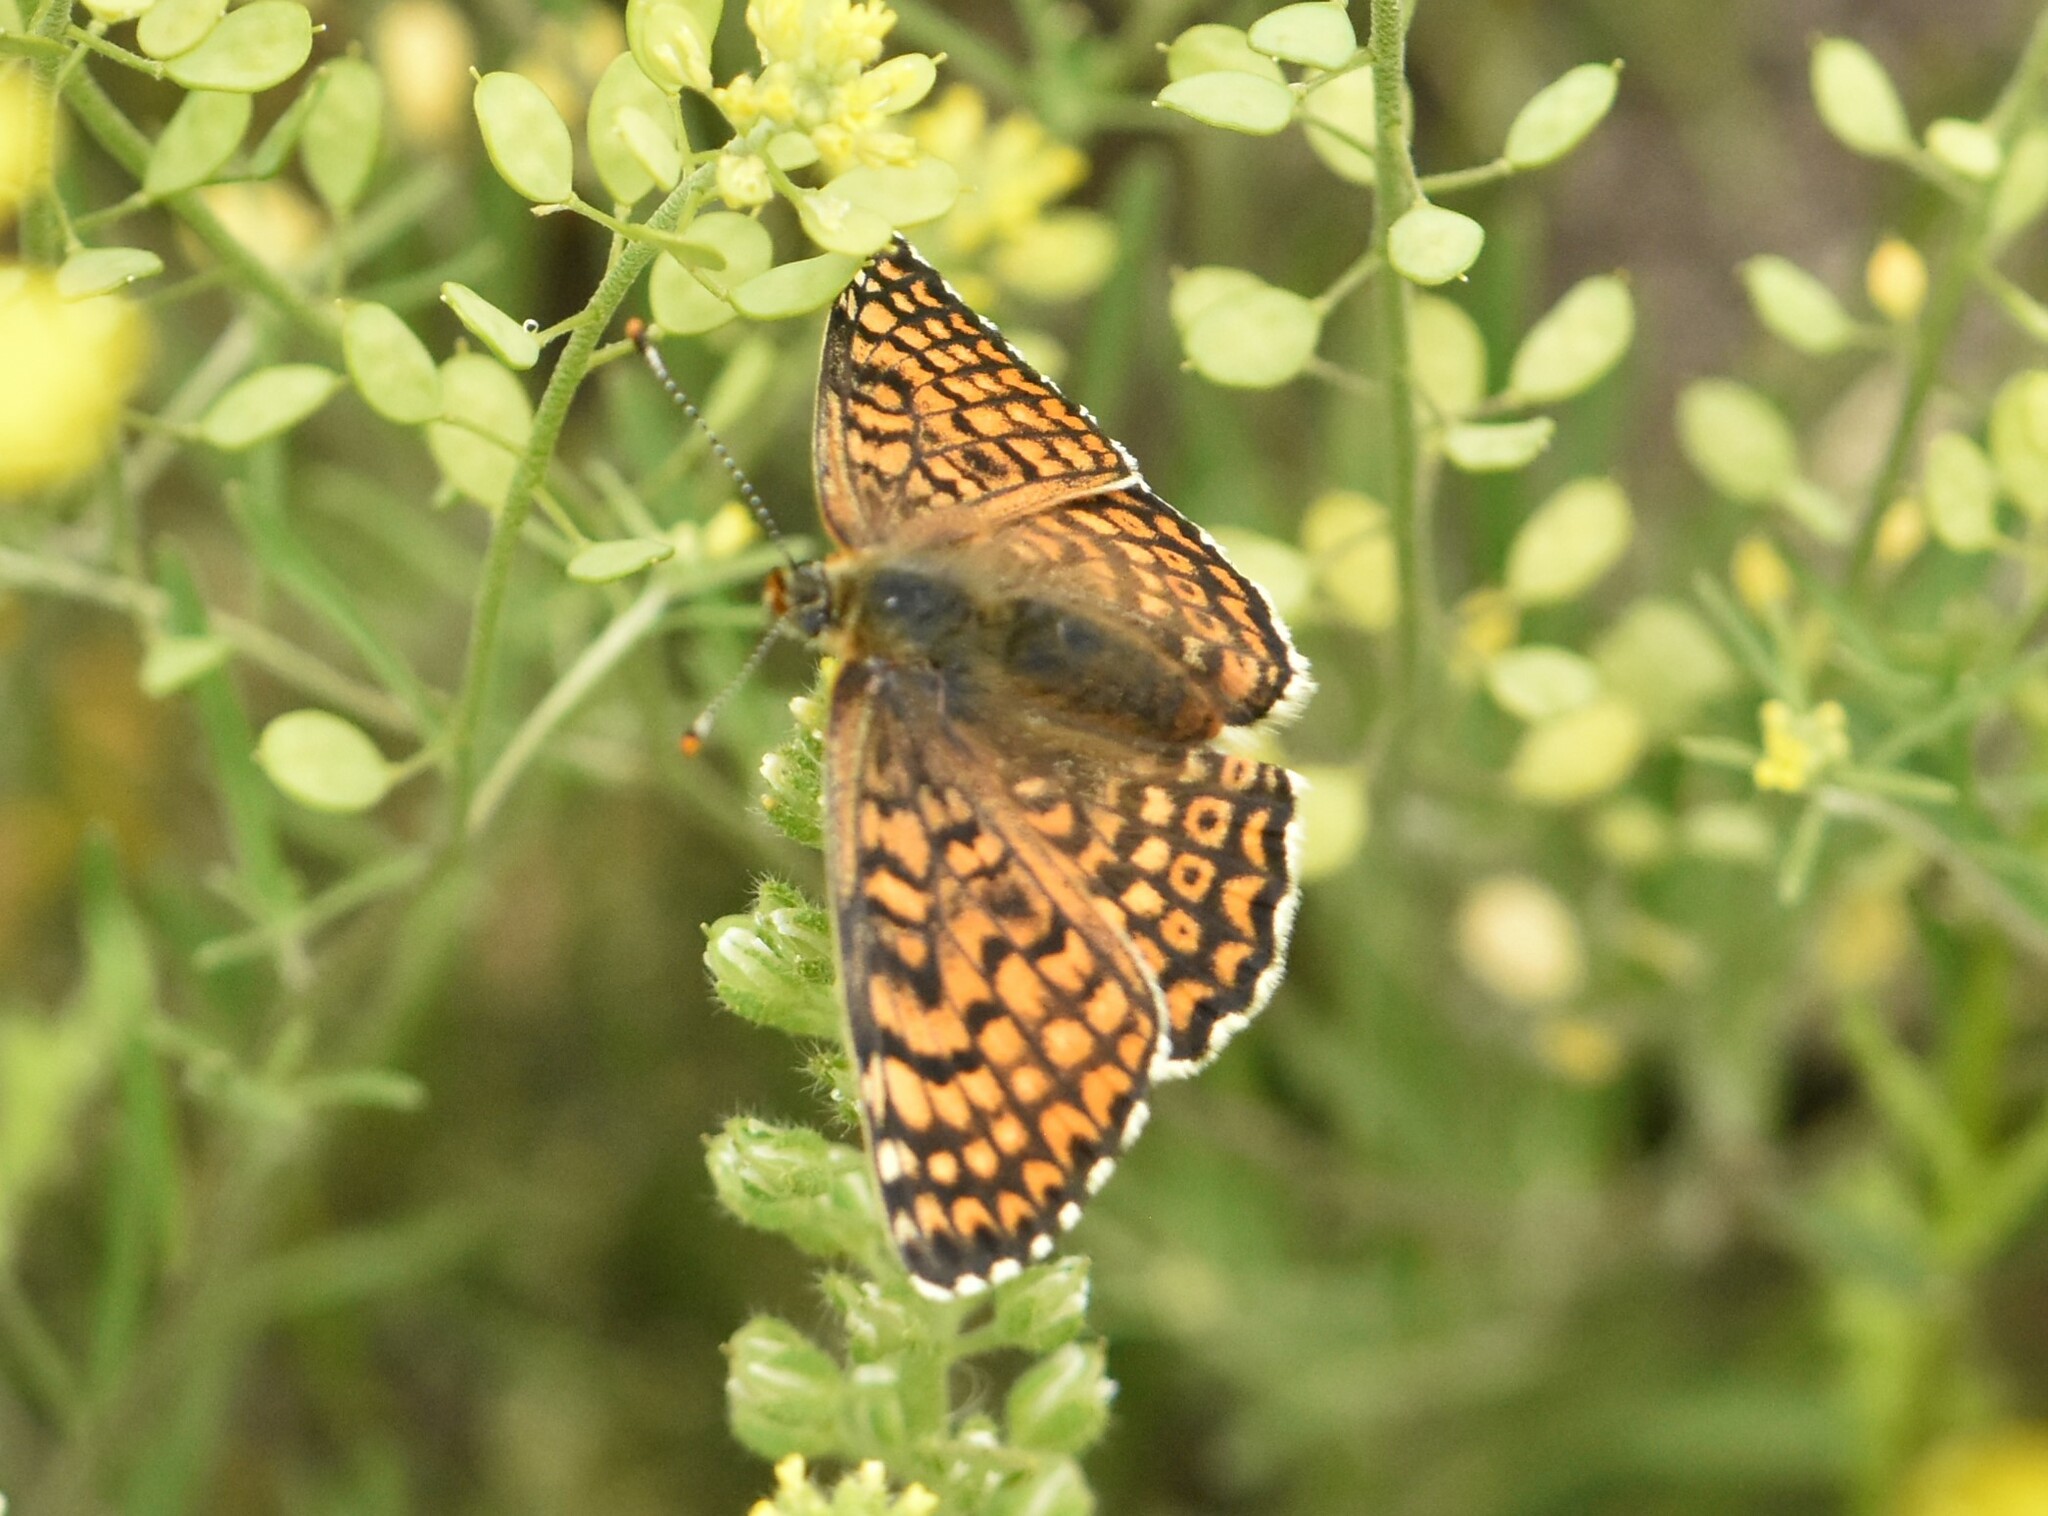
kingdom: Animalia
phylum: Arthropoda
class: Insecta
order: Lepidoptera
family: Nymphalidae
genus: Melitaea
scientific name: Melitaea cinxia
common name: Glanville fritillary
